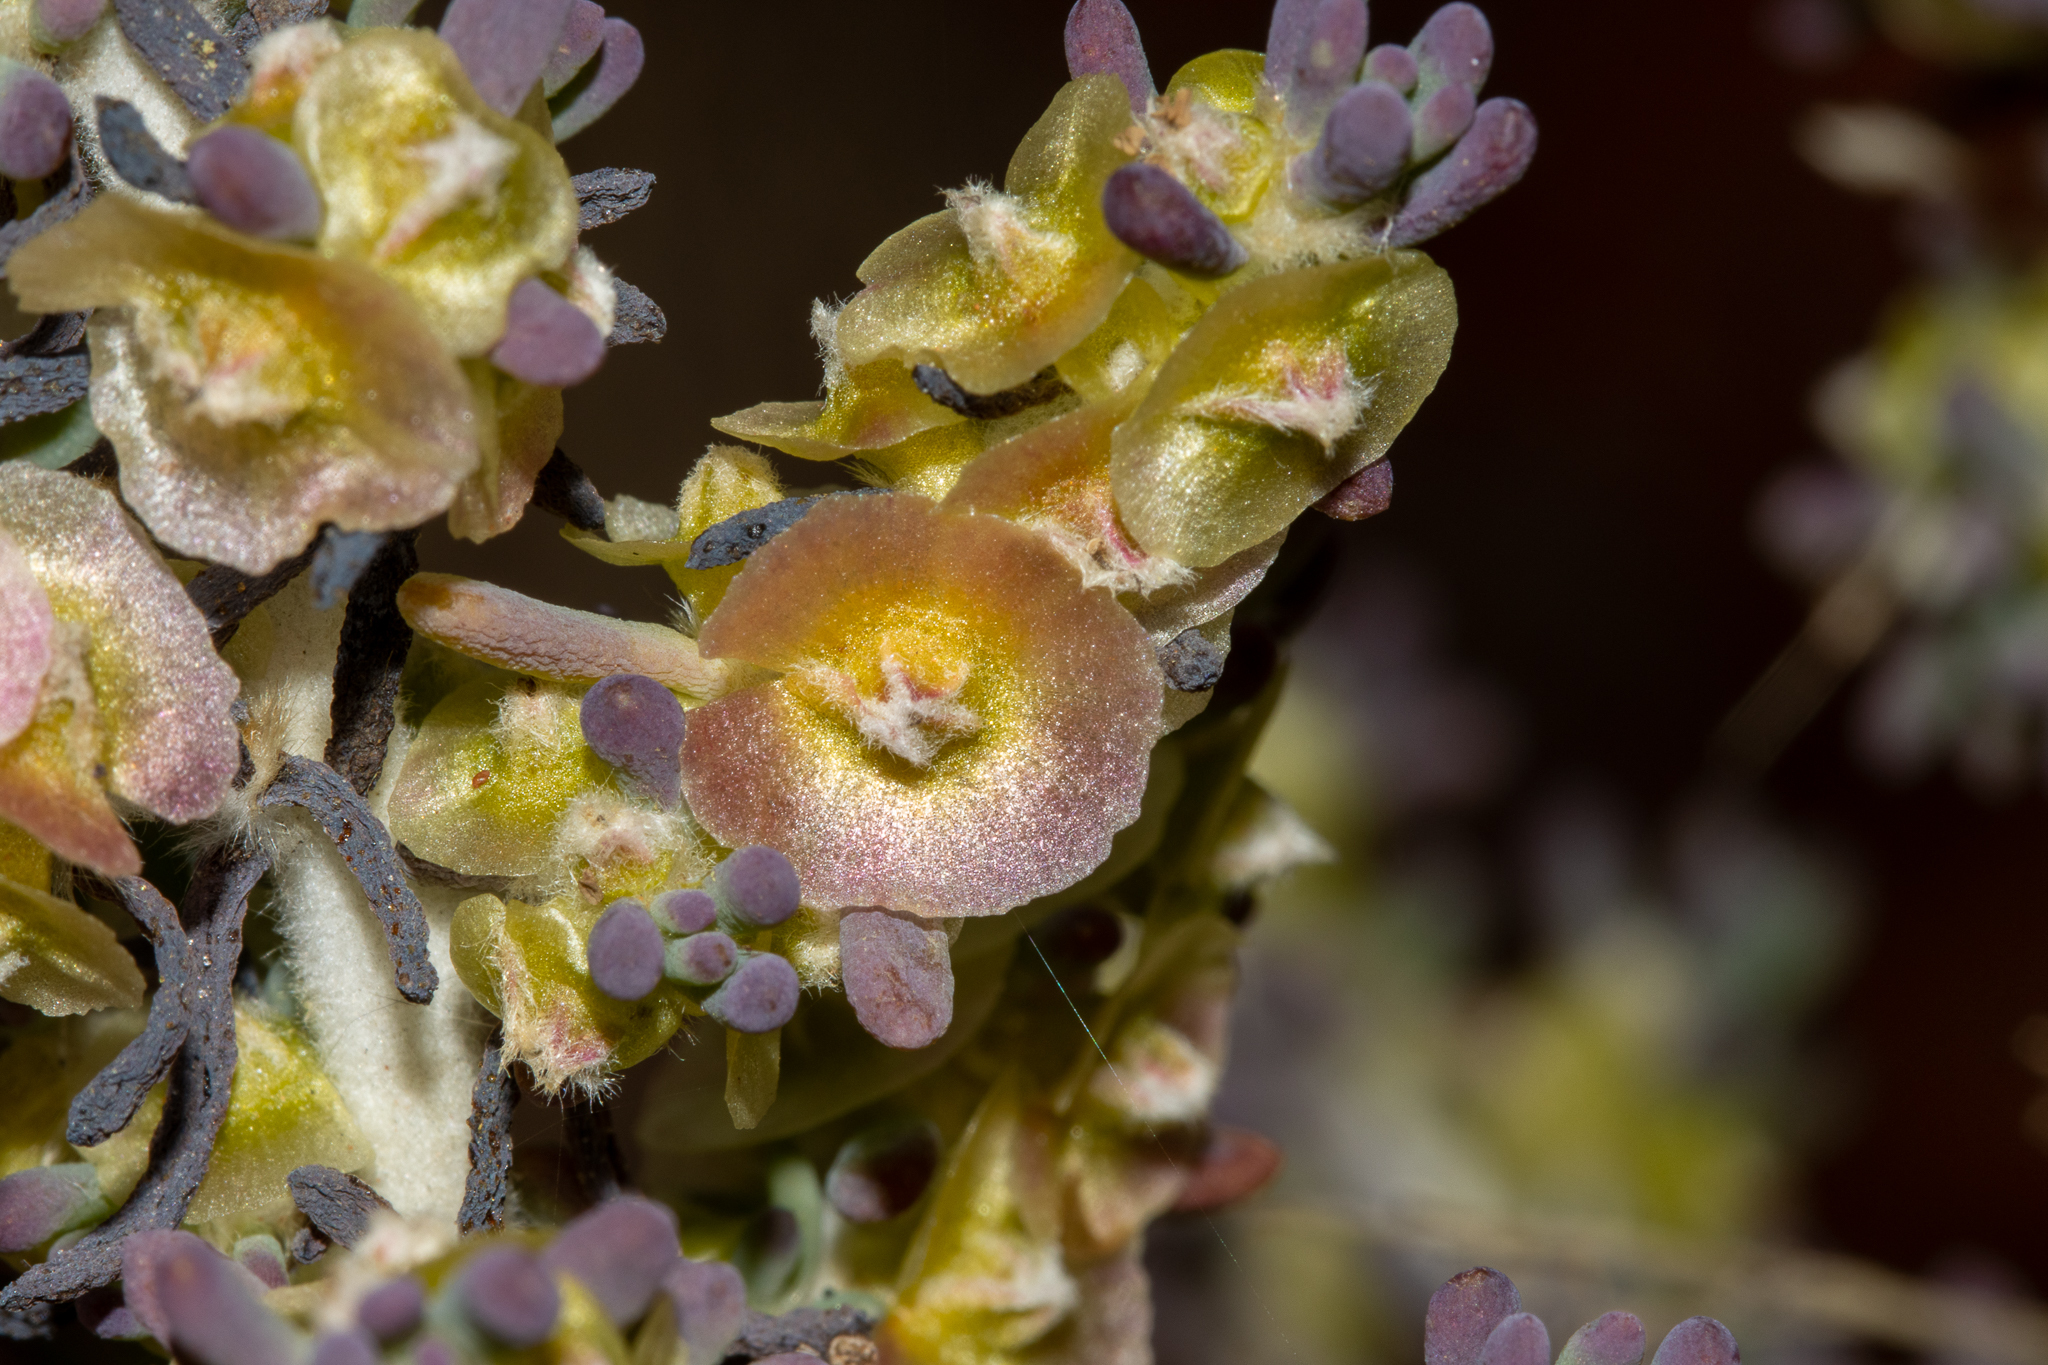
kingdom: Plantae
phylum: Tracheophyta
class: Magnoliopsida
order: Caryophyllales
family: Amaranthaceae
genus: Maireana
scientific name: Maireana pentatropis
